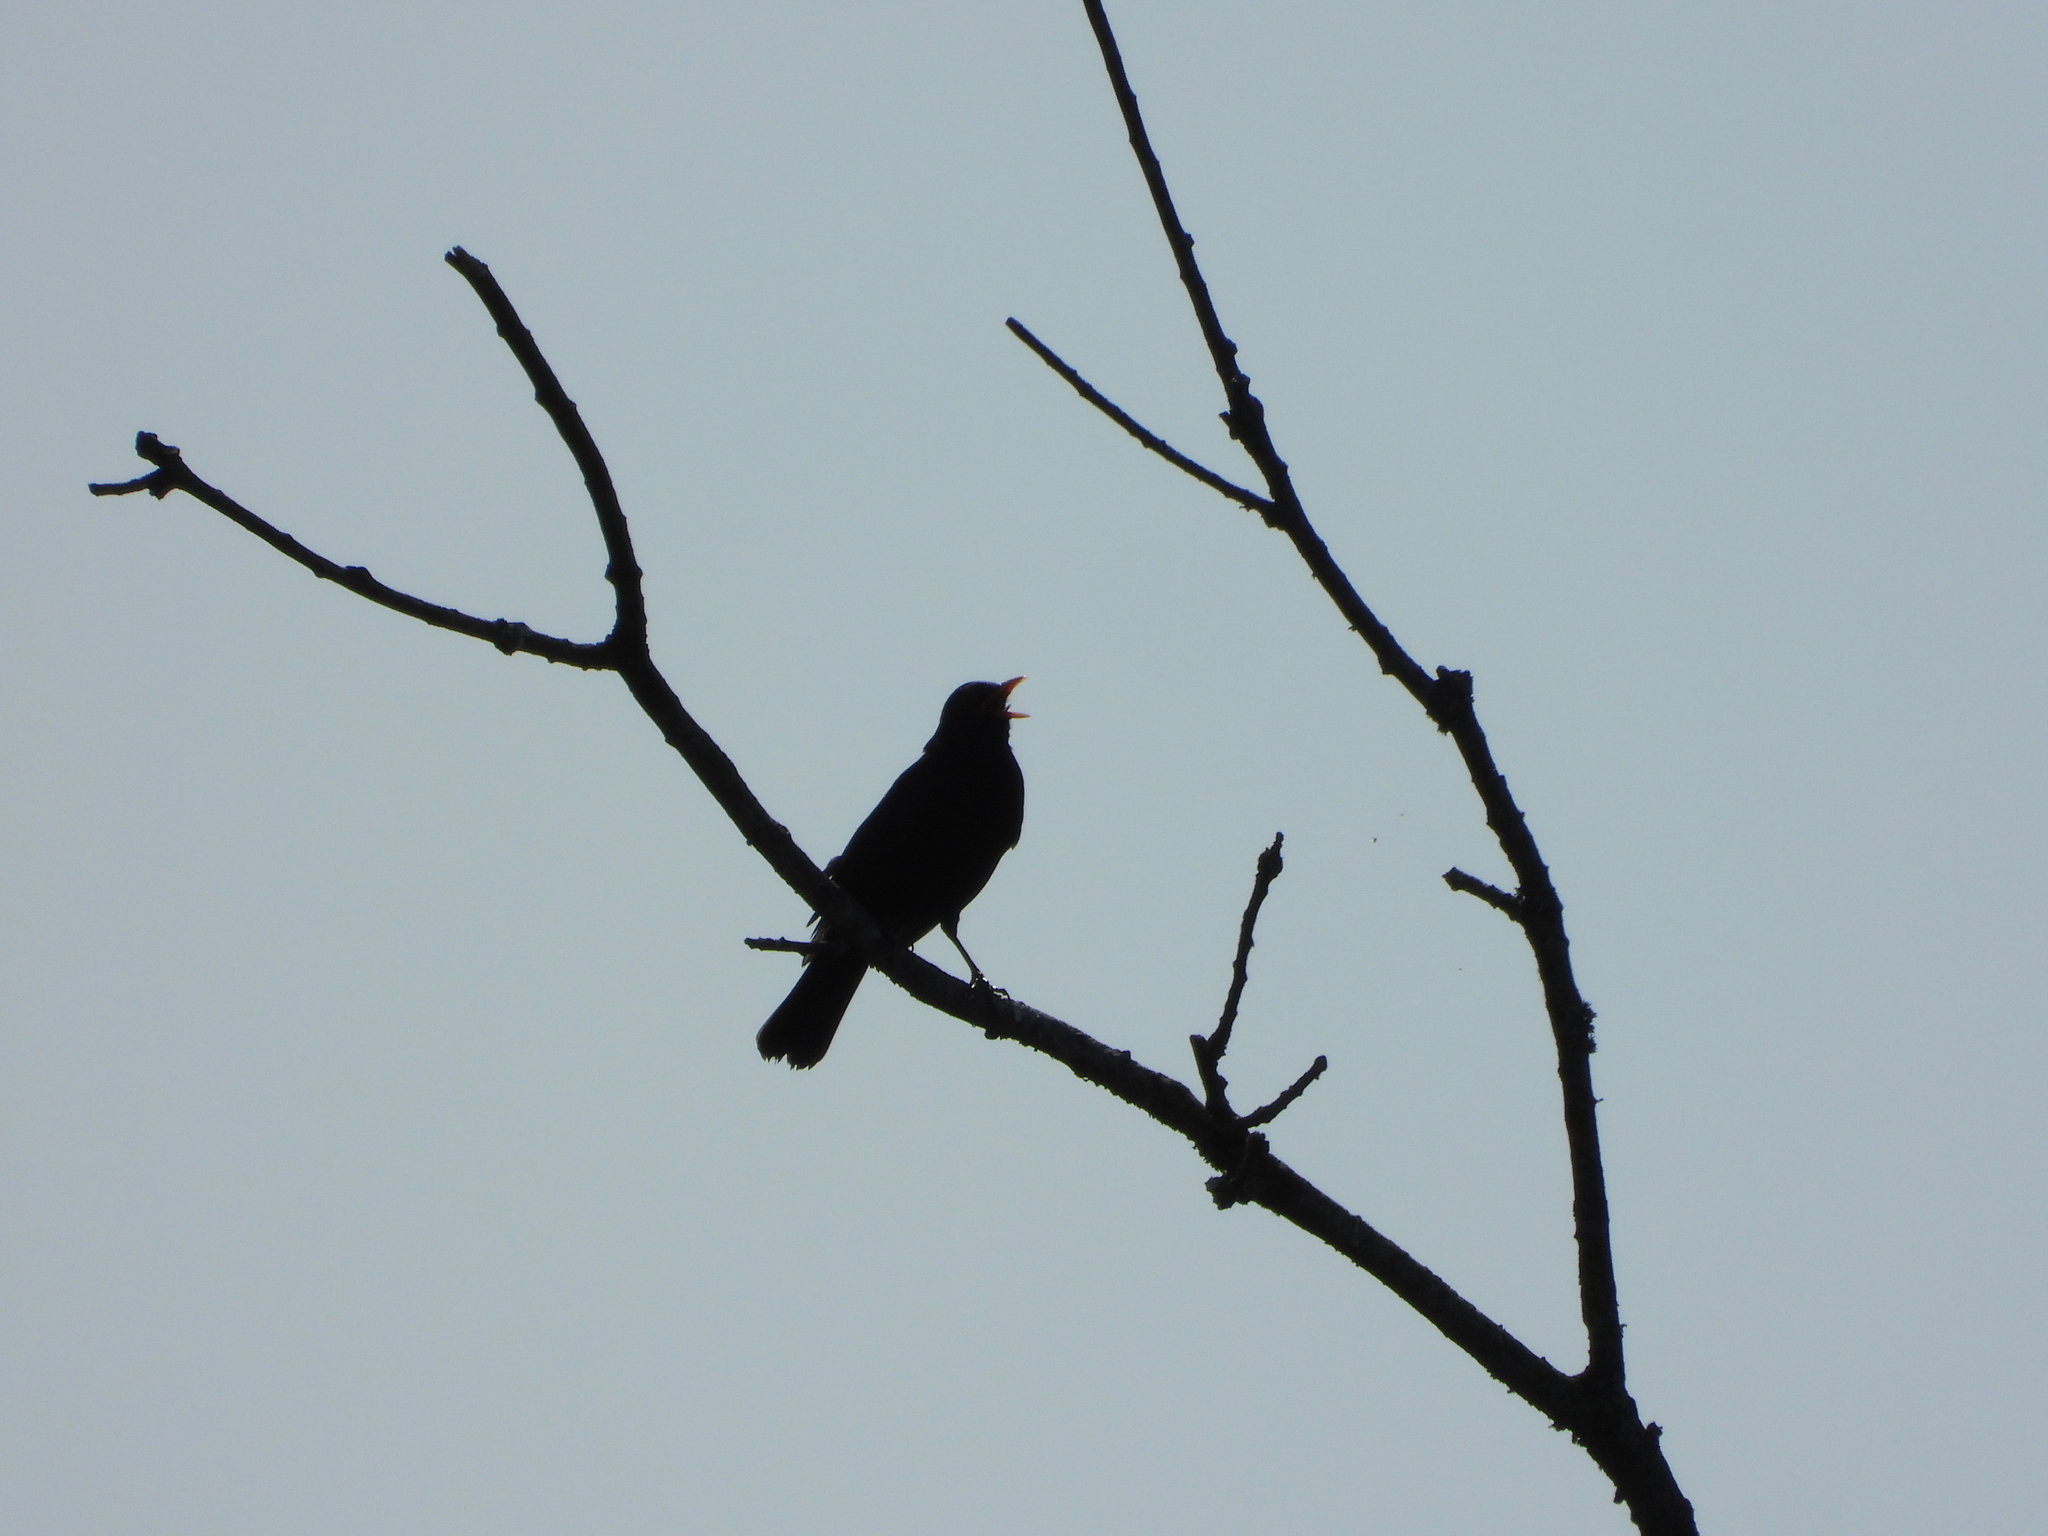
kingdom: Animalia
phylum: Chordata
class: Aves
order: Passeriformes
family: Turdidae
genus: Turdus
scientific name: Turdus merula
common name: Common blackbird
